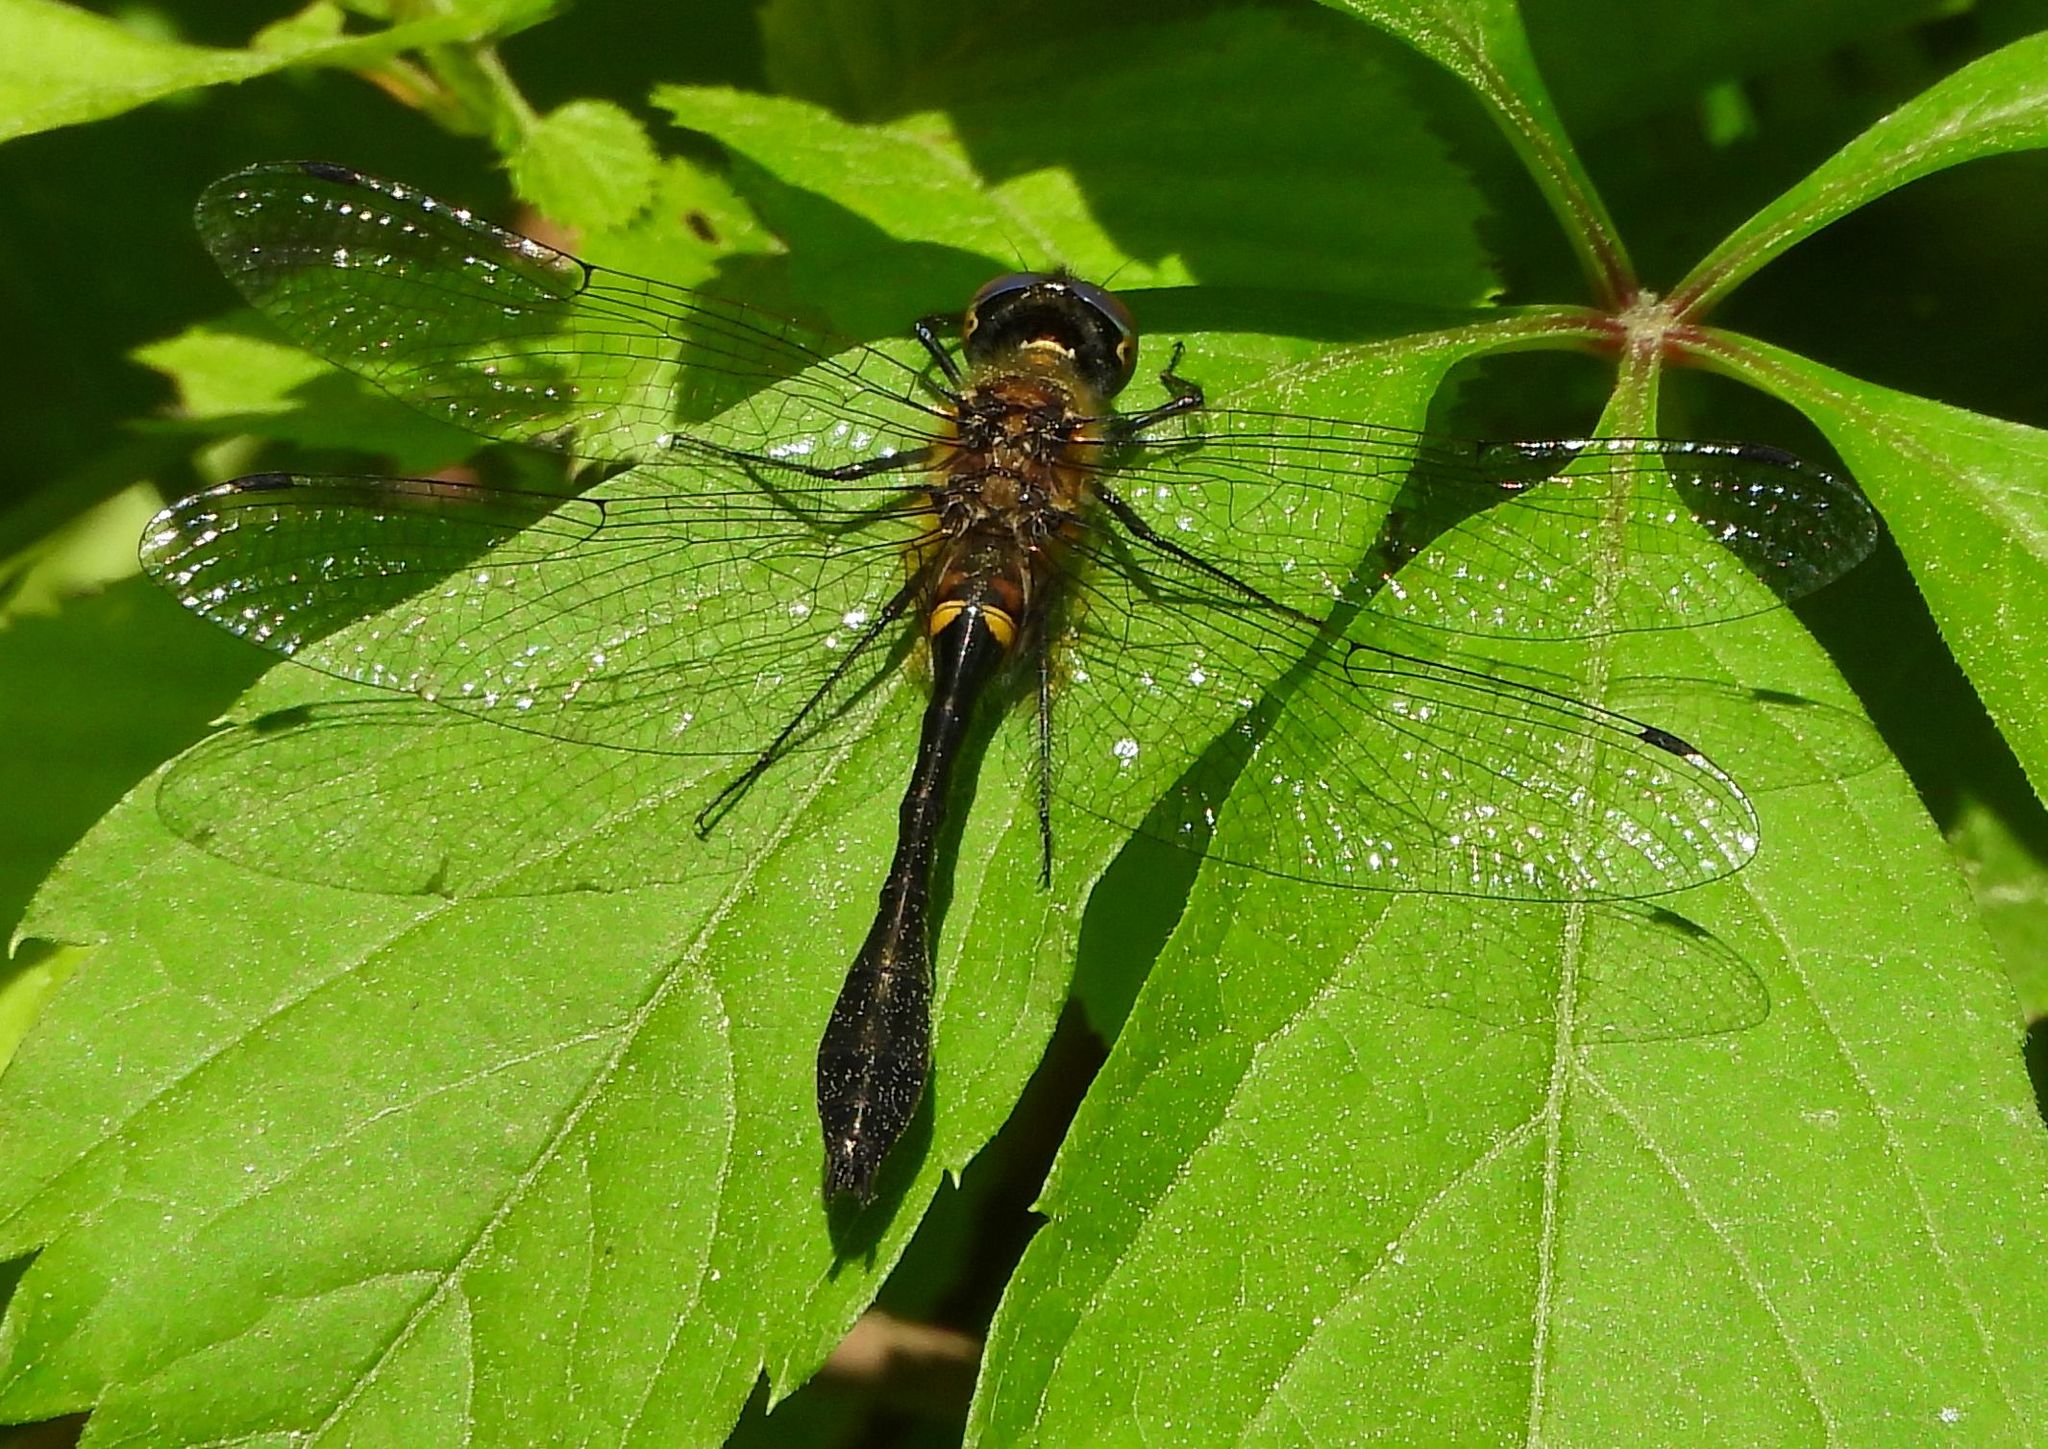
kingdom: Animalia
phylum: Arthropoda
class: Insecta
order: Odonata
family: Corduliidae
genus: Dorocordulia
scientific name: Dorocordulia libera
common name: Racket-tailed emerald
